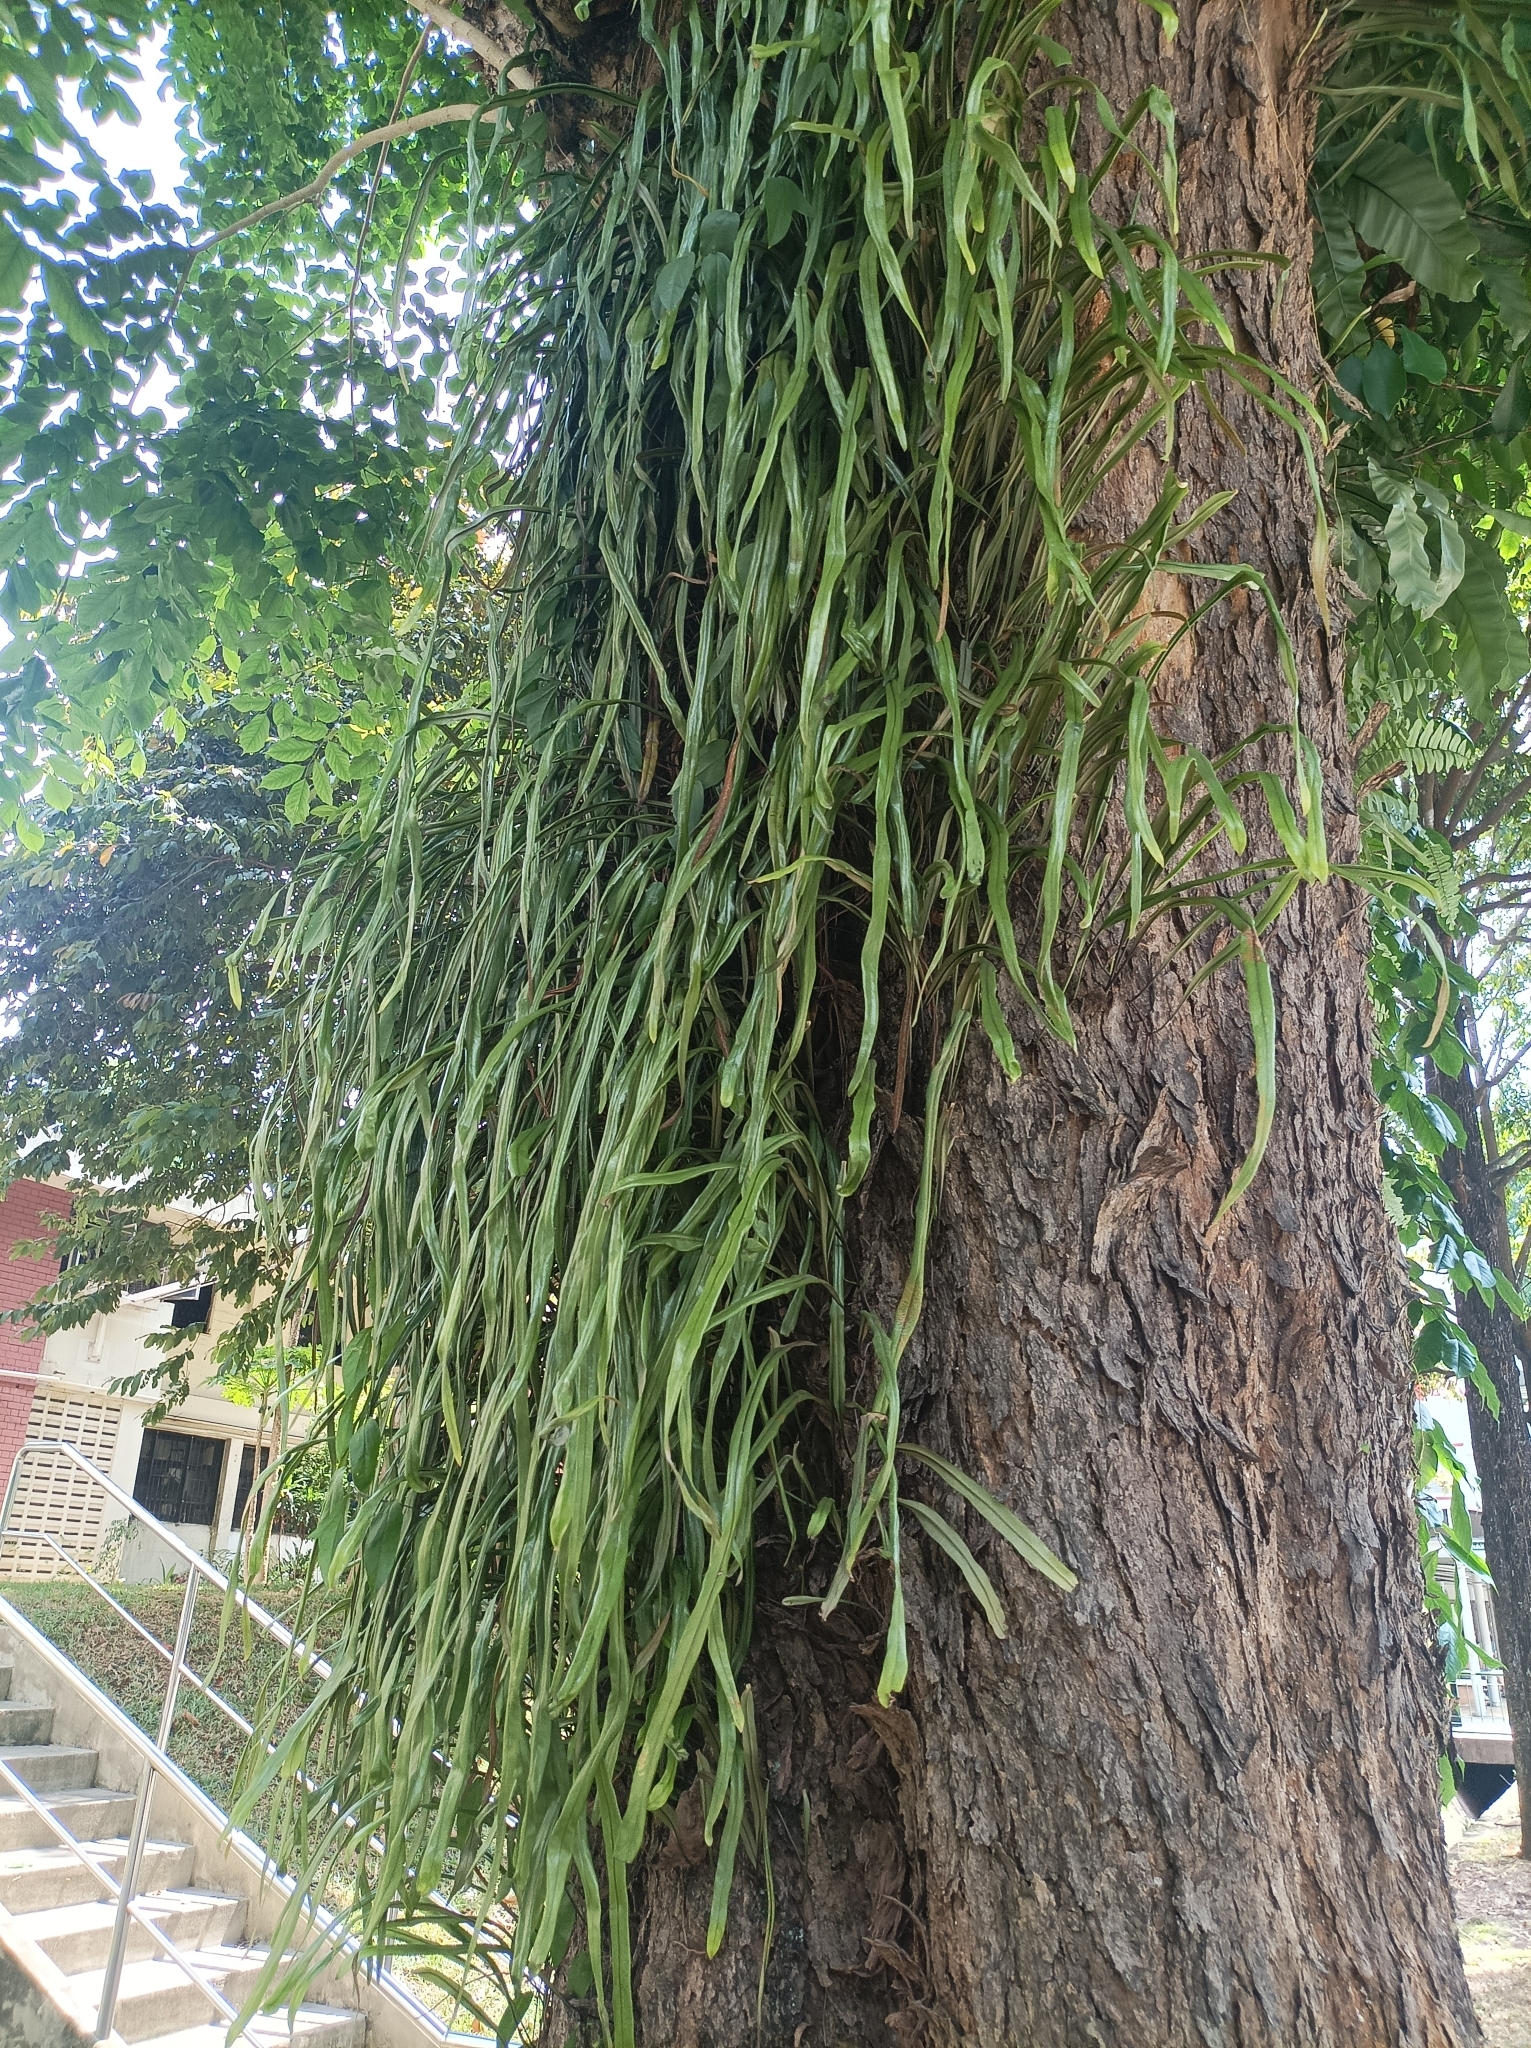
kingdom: Plantae
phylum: Tracheophyta
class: Polypodiopsida
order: Polypodiales
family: Polypodiaceae
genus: Pyrrosia
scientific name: Pyrrosia longifolia
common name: Long-leaved felt fern
